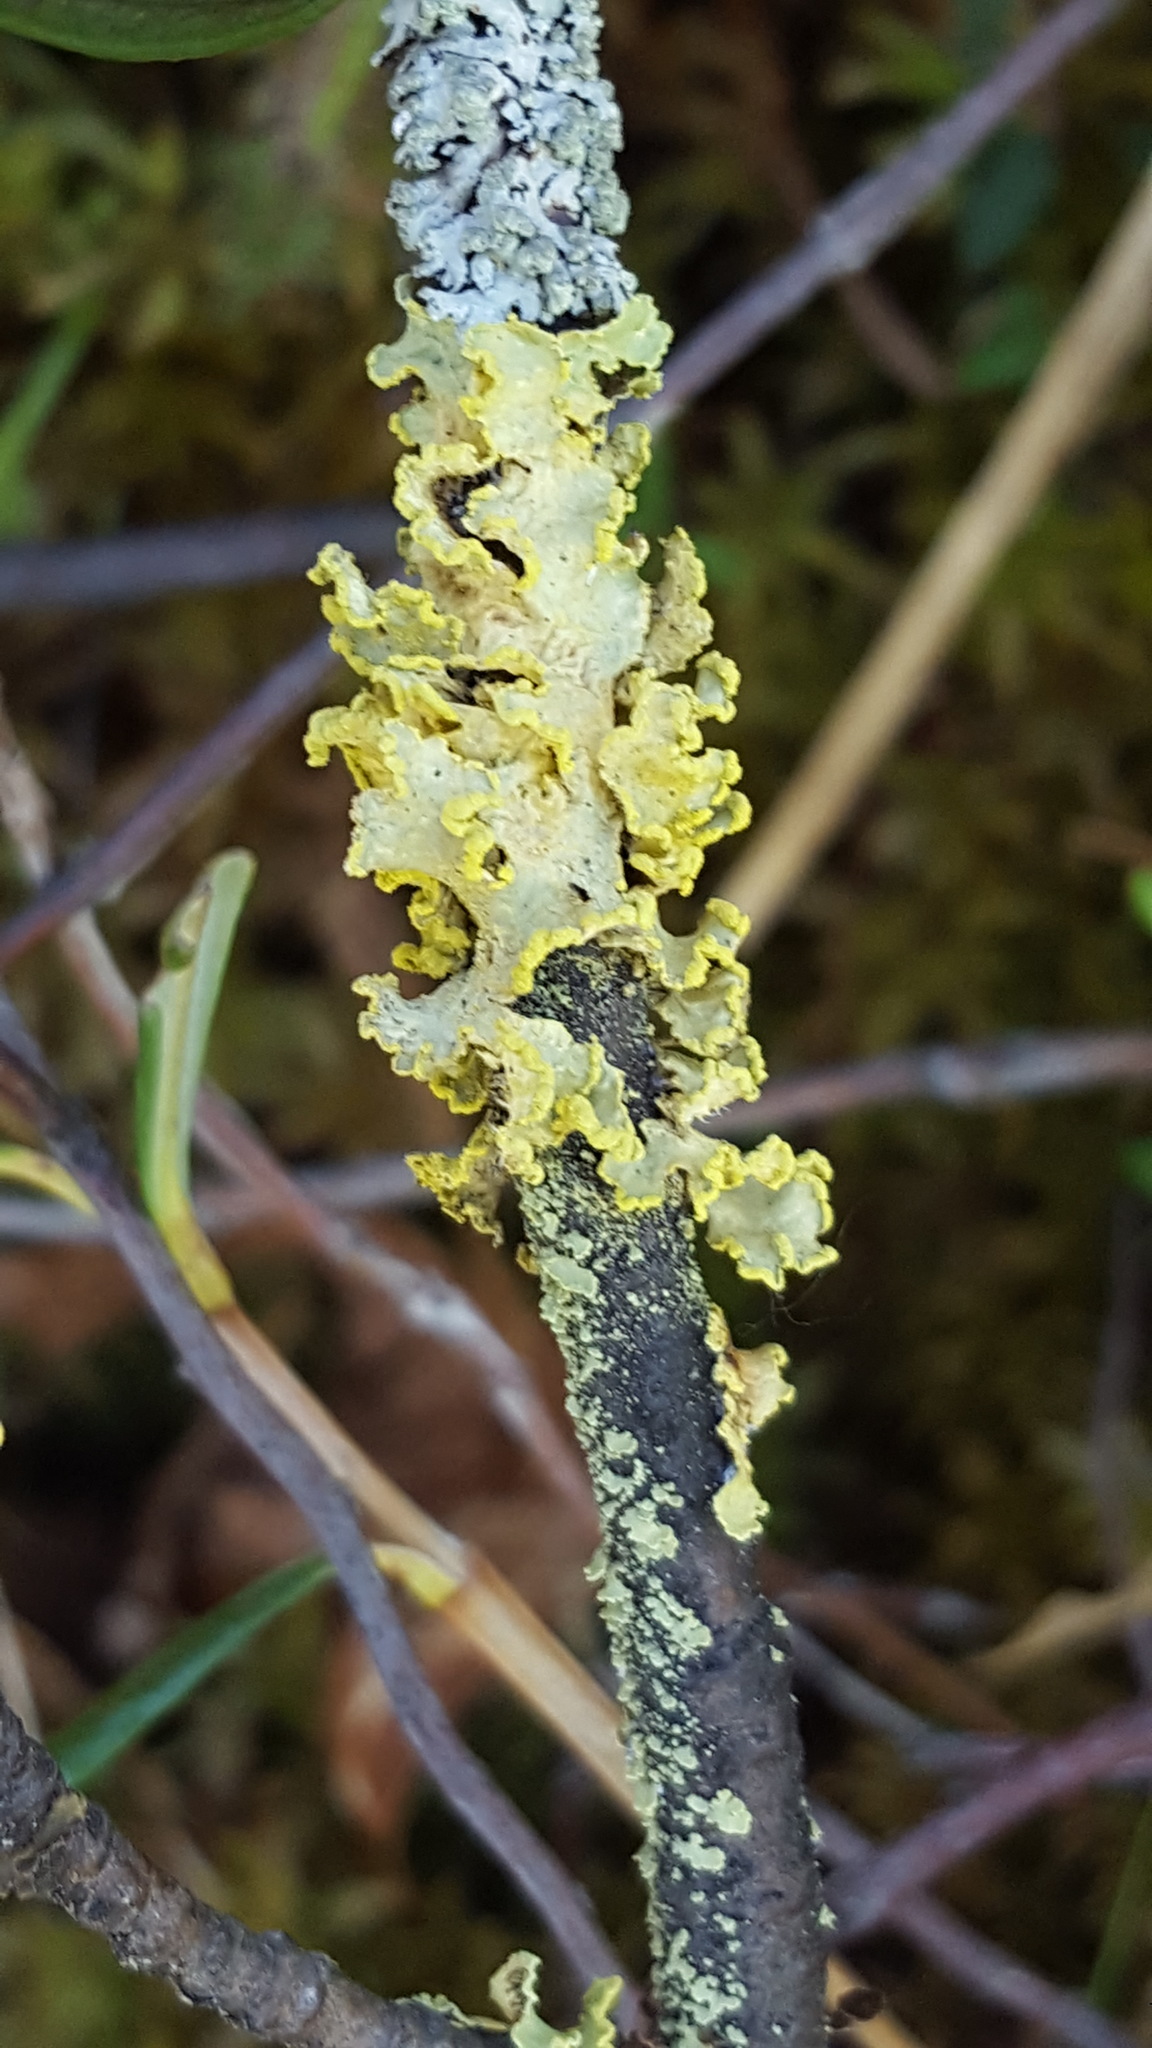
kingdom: Fungi
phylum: Ascomycota
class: Lecanoromycetes
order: Lecanorales
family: Parmeliaceae
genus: Vulpicida
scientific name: Vulpicida pinastri
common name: Powdered sunshine lichen
